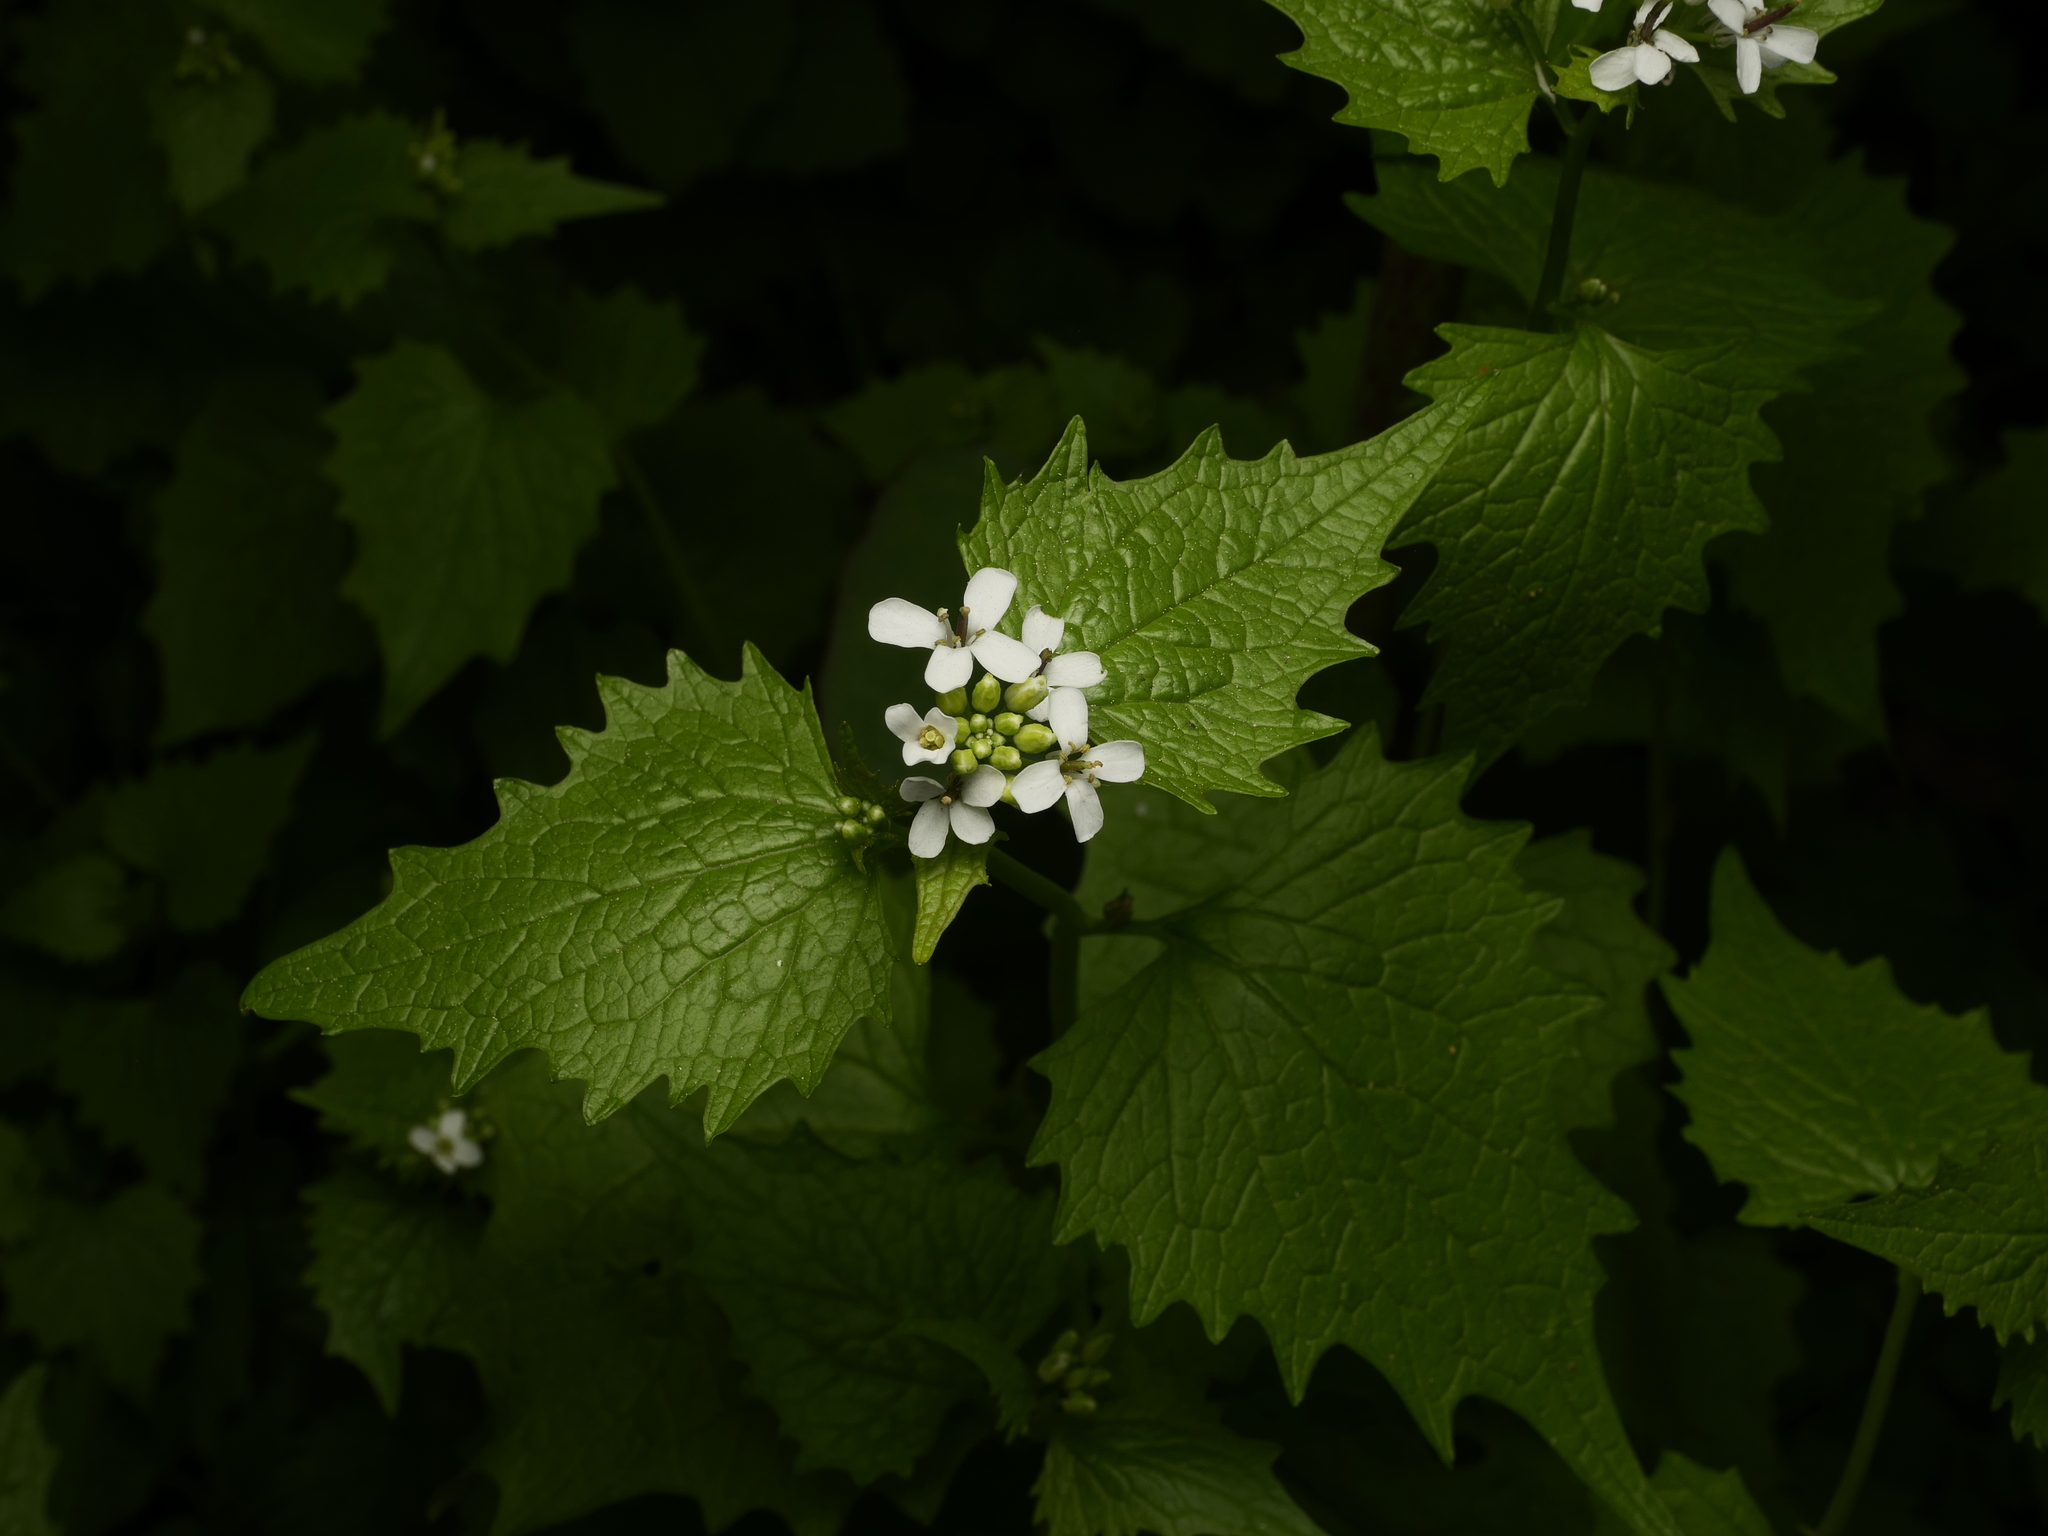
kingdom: Plantae
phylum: Tracheophyta
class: Magnoliopsida
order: Brassicales
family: Brassicaceae
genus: Alliaria
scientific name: Alliaria petiolata
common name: Garlic mustard
